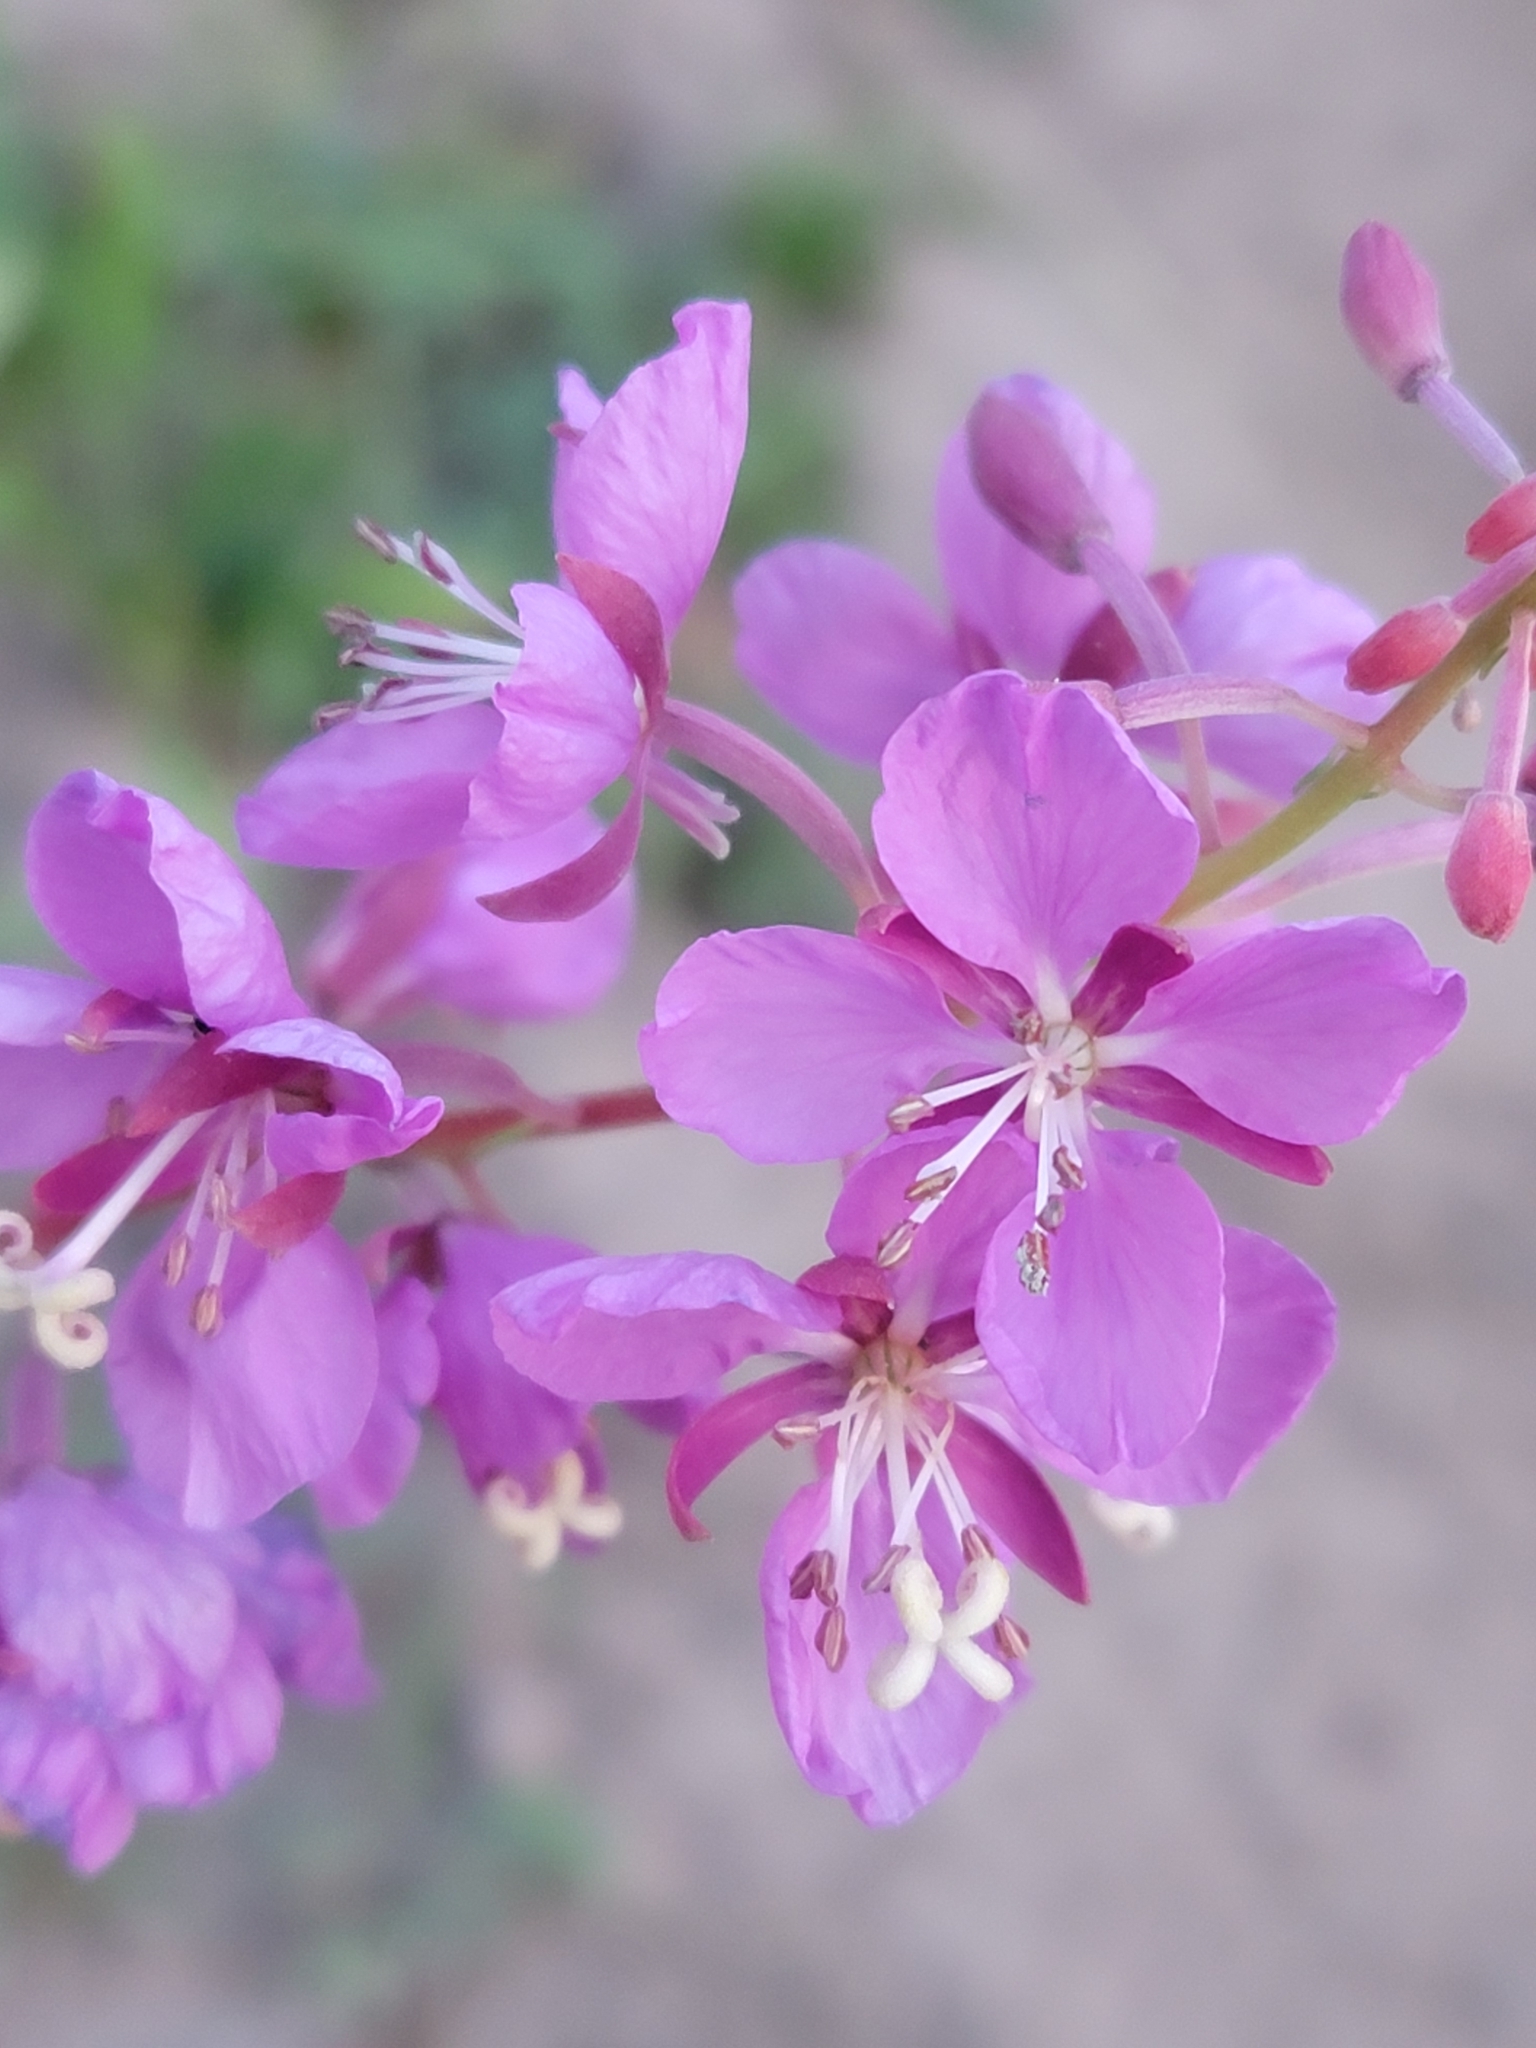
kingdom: Plantae
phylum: Tracheophyta
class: Magnoliopsida
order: Myrtales
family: Onagraceae
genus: Chamaenerion
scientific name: Chamaenerion angustifolium
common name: Fireweed
